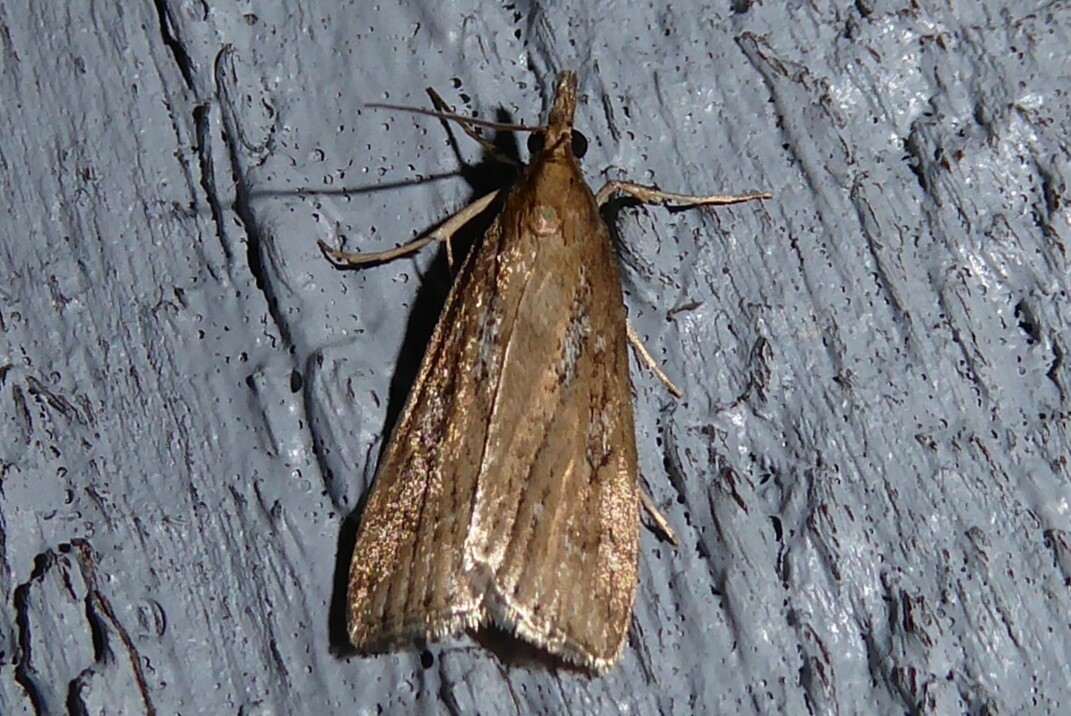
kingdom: Animalia
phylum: Arthropoda
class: Insecta
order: Lepidoptera
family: Crambidae
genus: Eudonia
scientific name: Eudonia octophora
